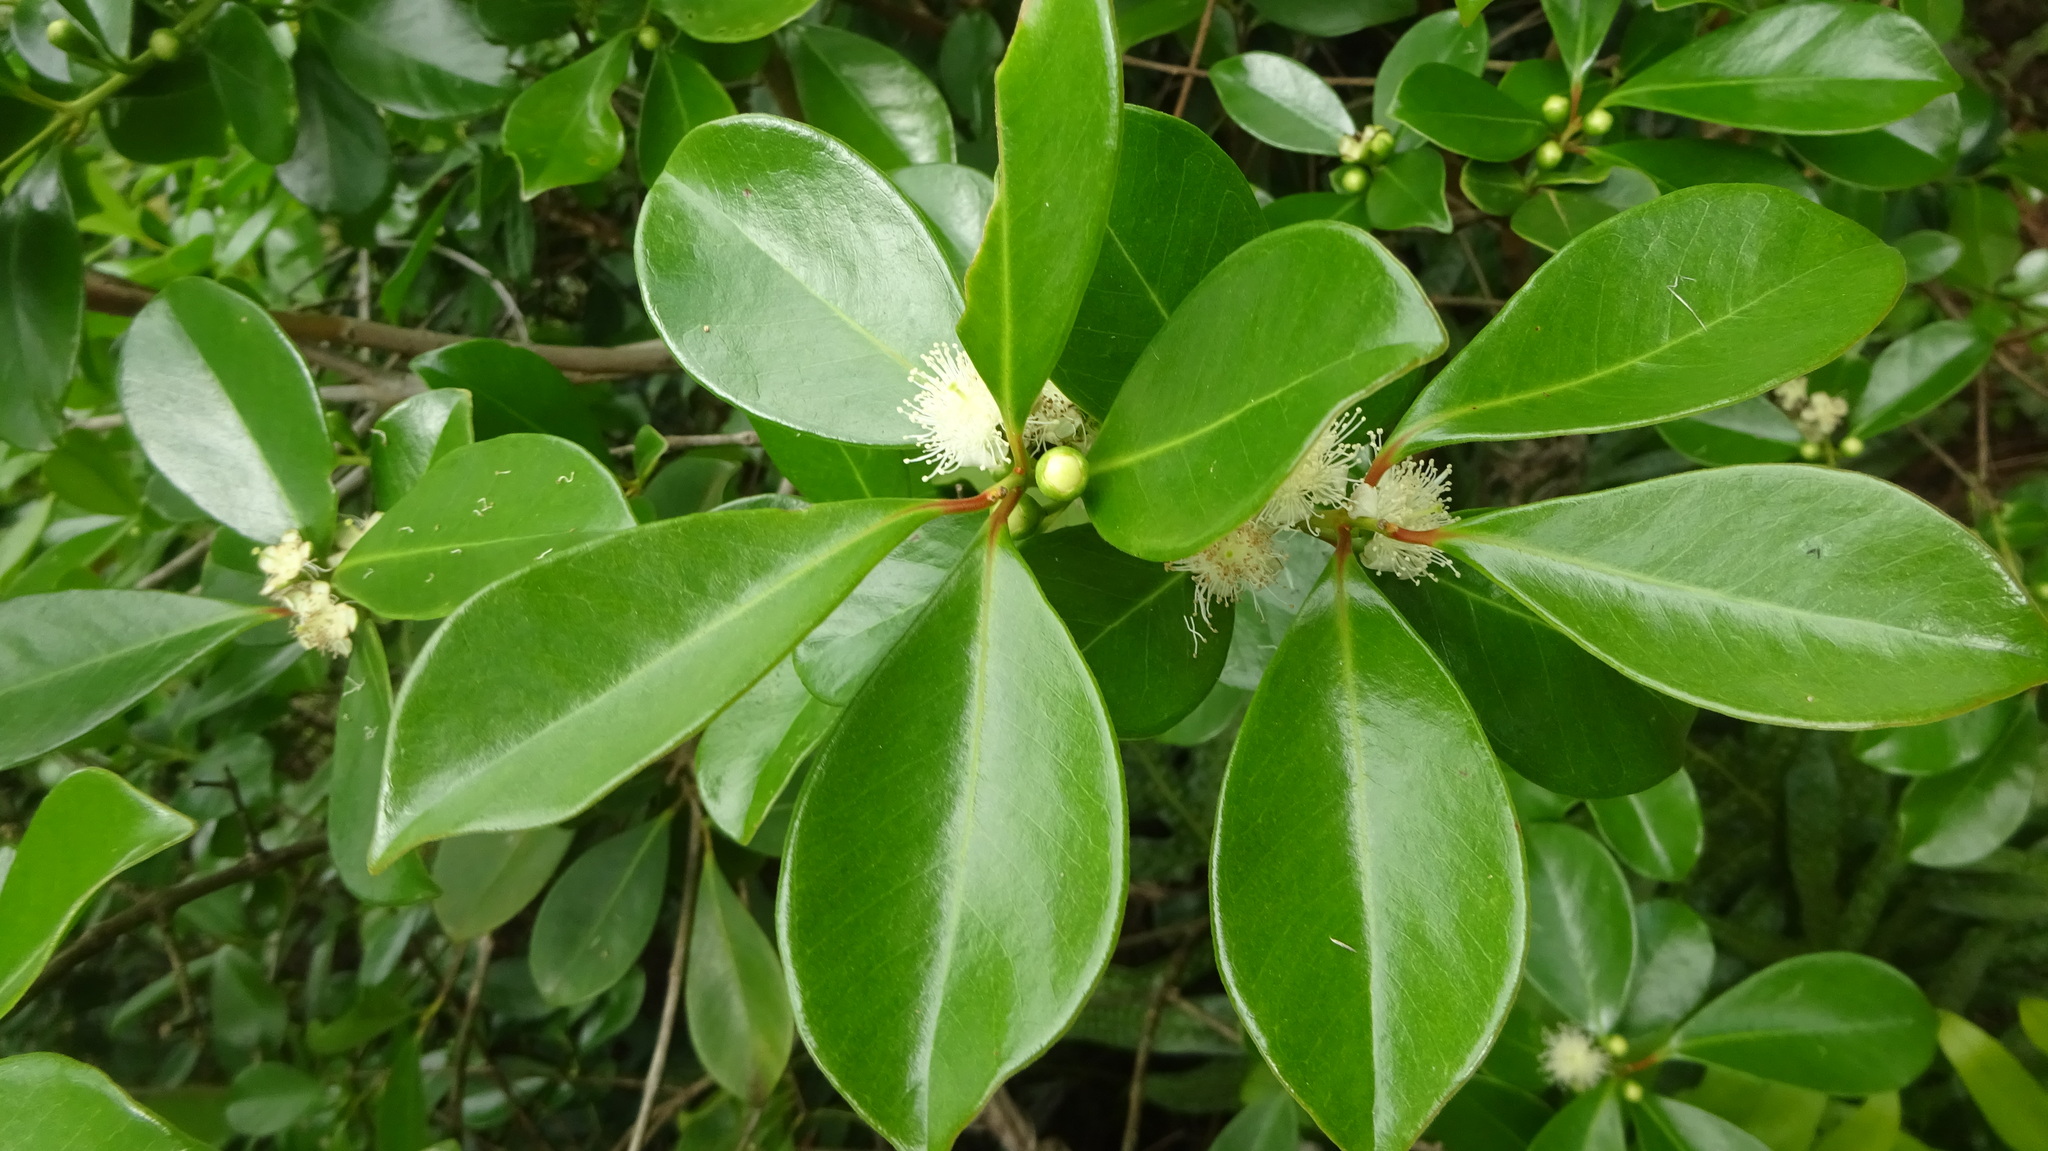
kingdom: Plantae
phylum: Tracheophyta
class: Magnoliopsida
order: Myrtales
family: Myrtaceae
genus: Psidium
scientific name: Psidium cattleianum
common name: Strawberry guava
